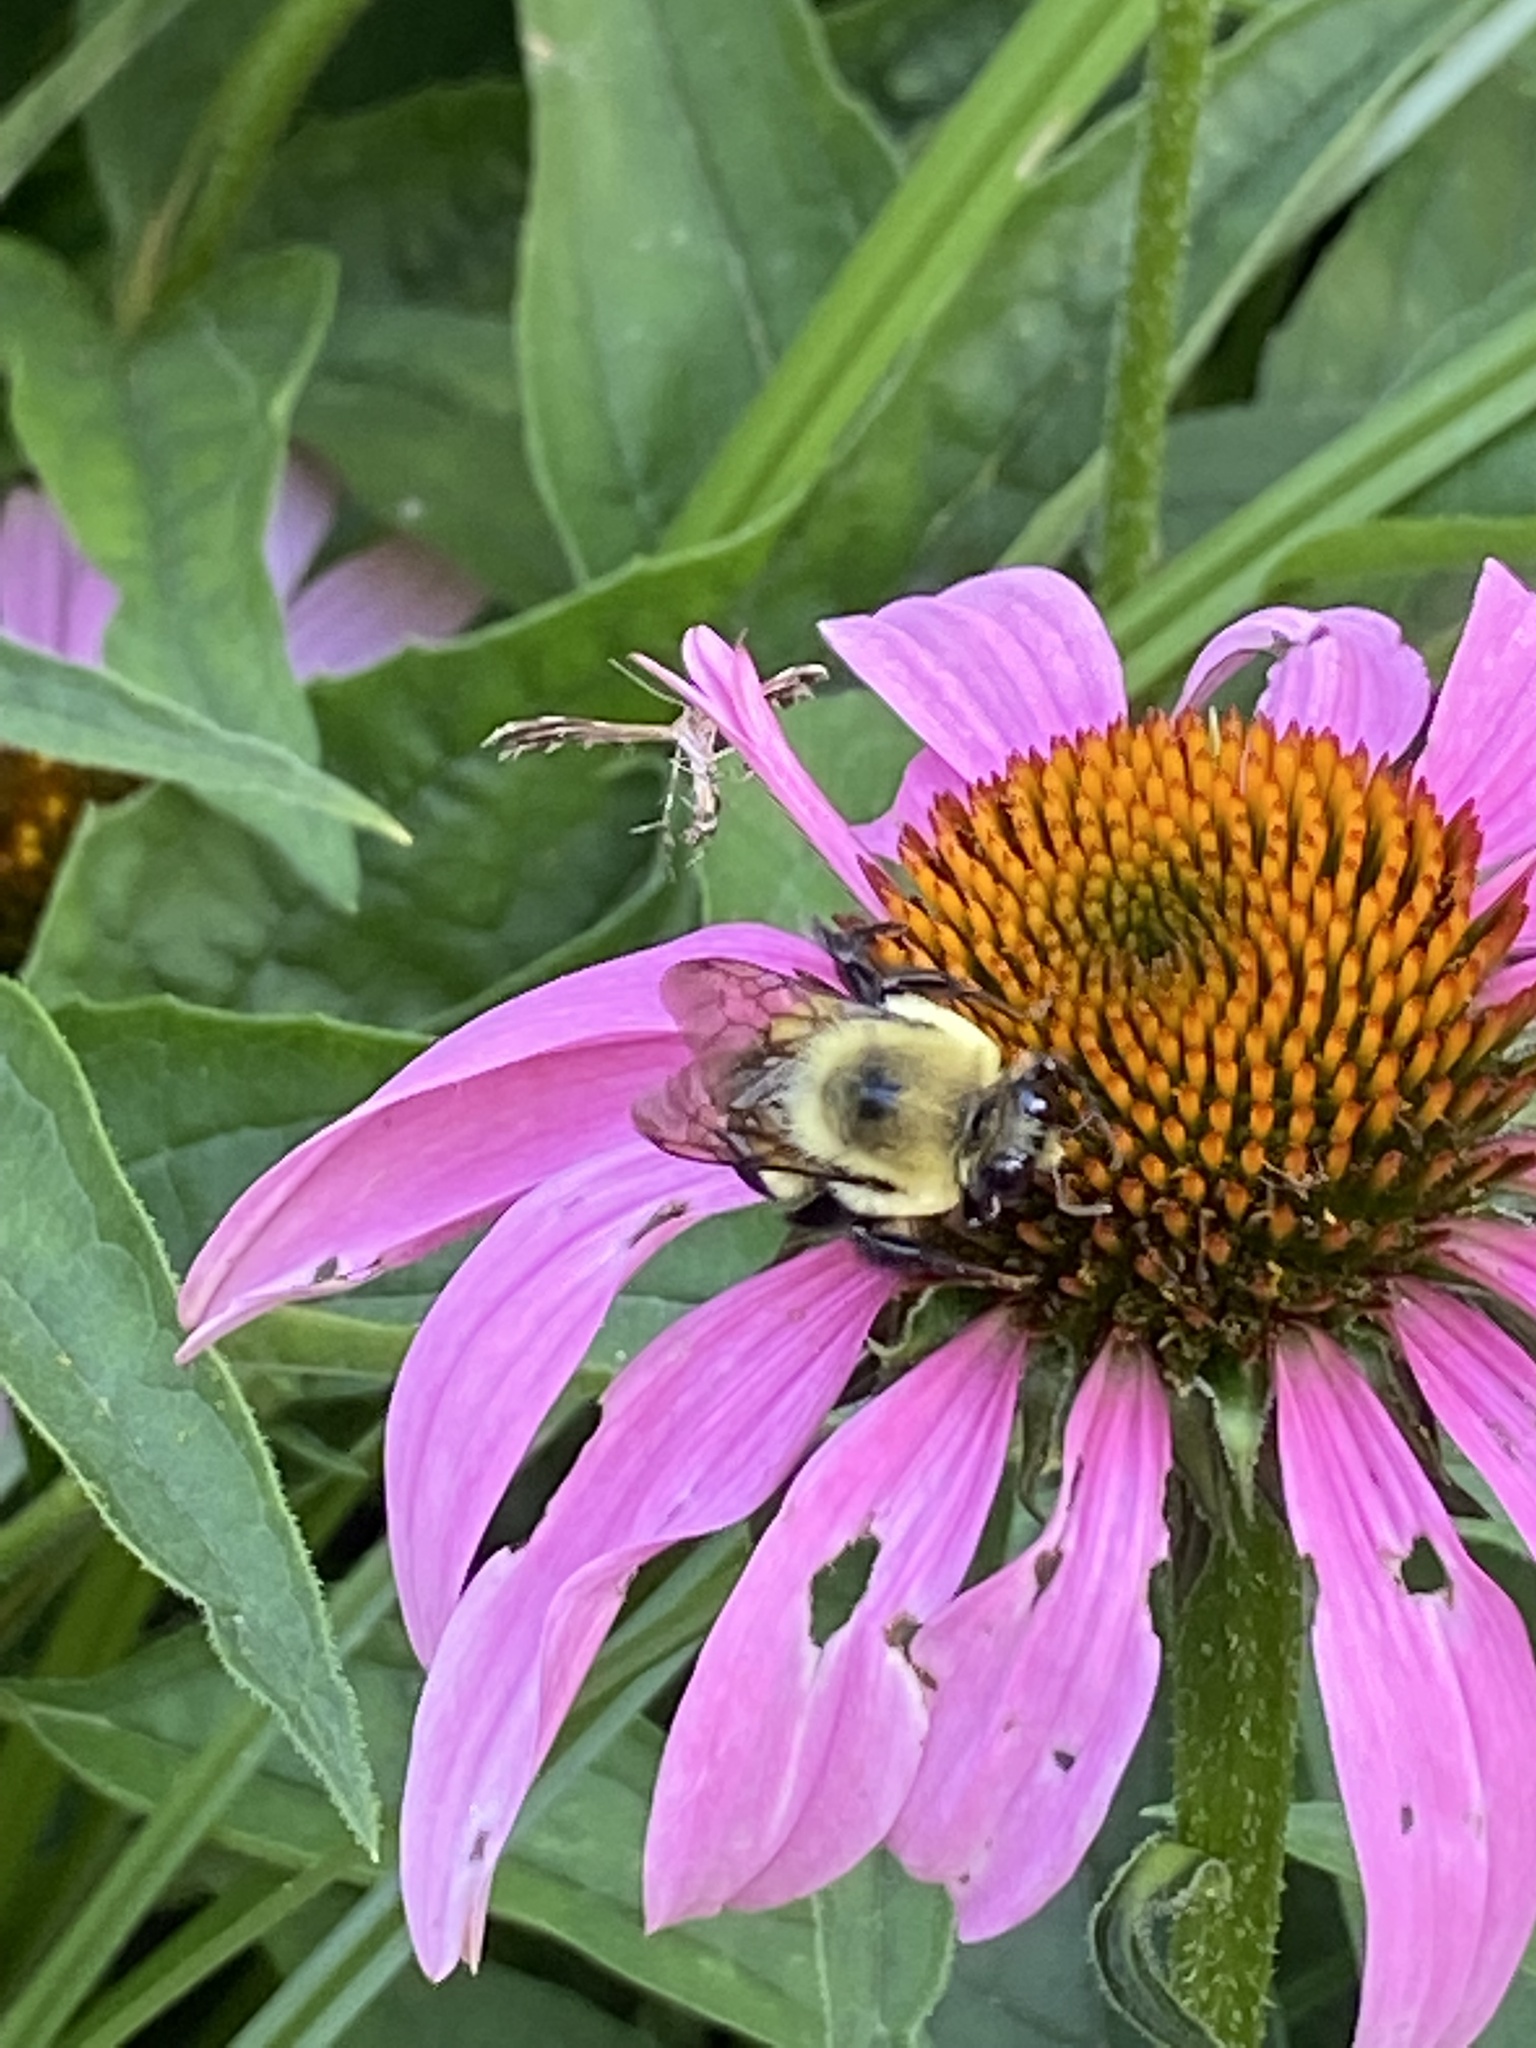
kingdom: Animalia
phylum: Arthropoda
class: Insecta
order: Hymenoptera
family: Apidae
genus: Bombus
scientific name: Bombus griseocollis
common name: Brown-belted bumble bee
